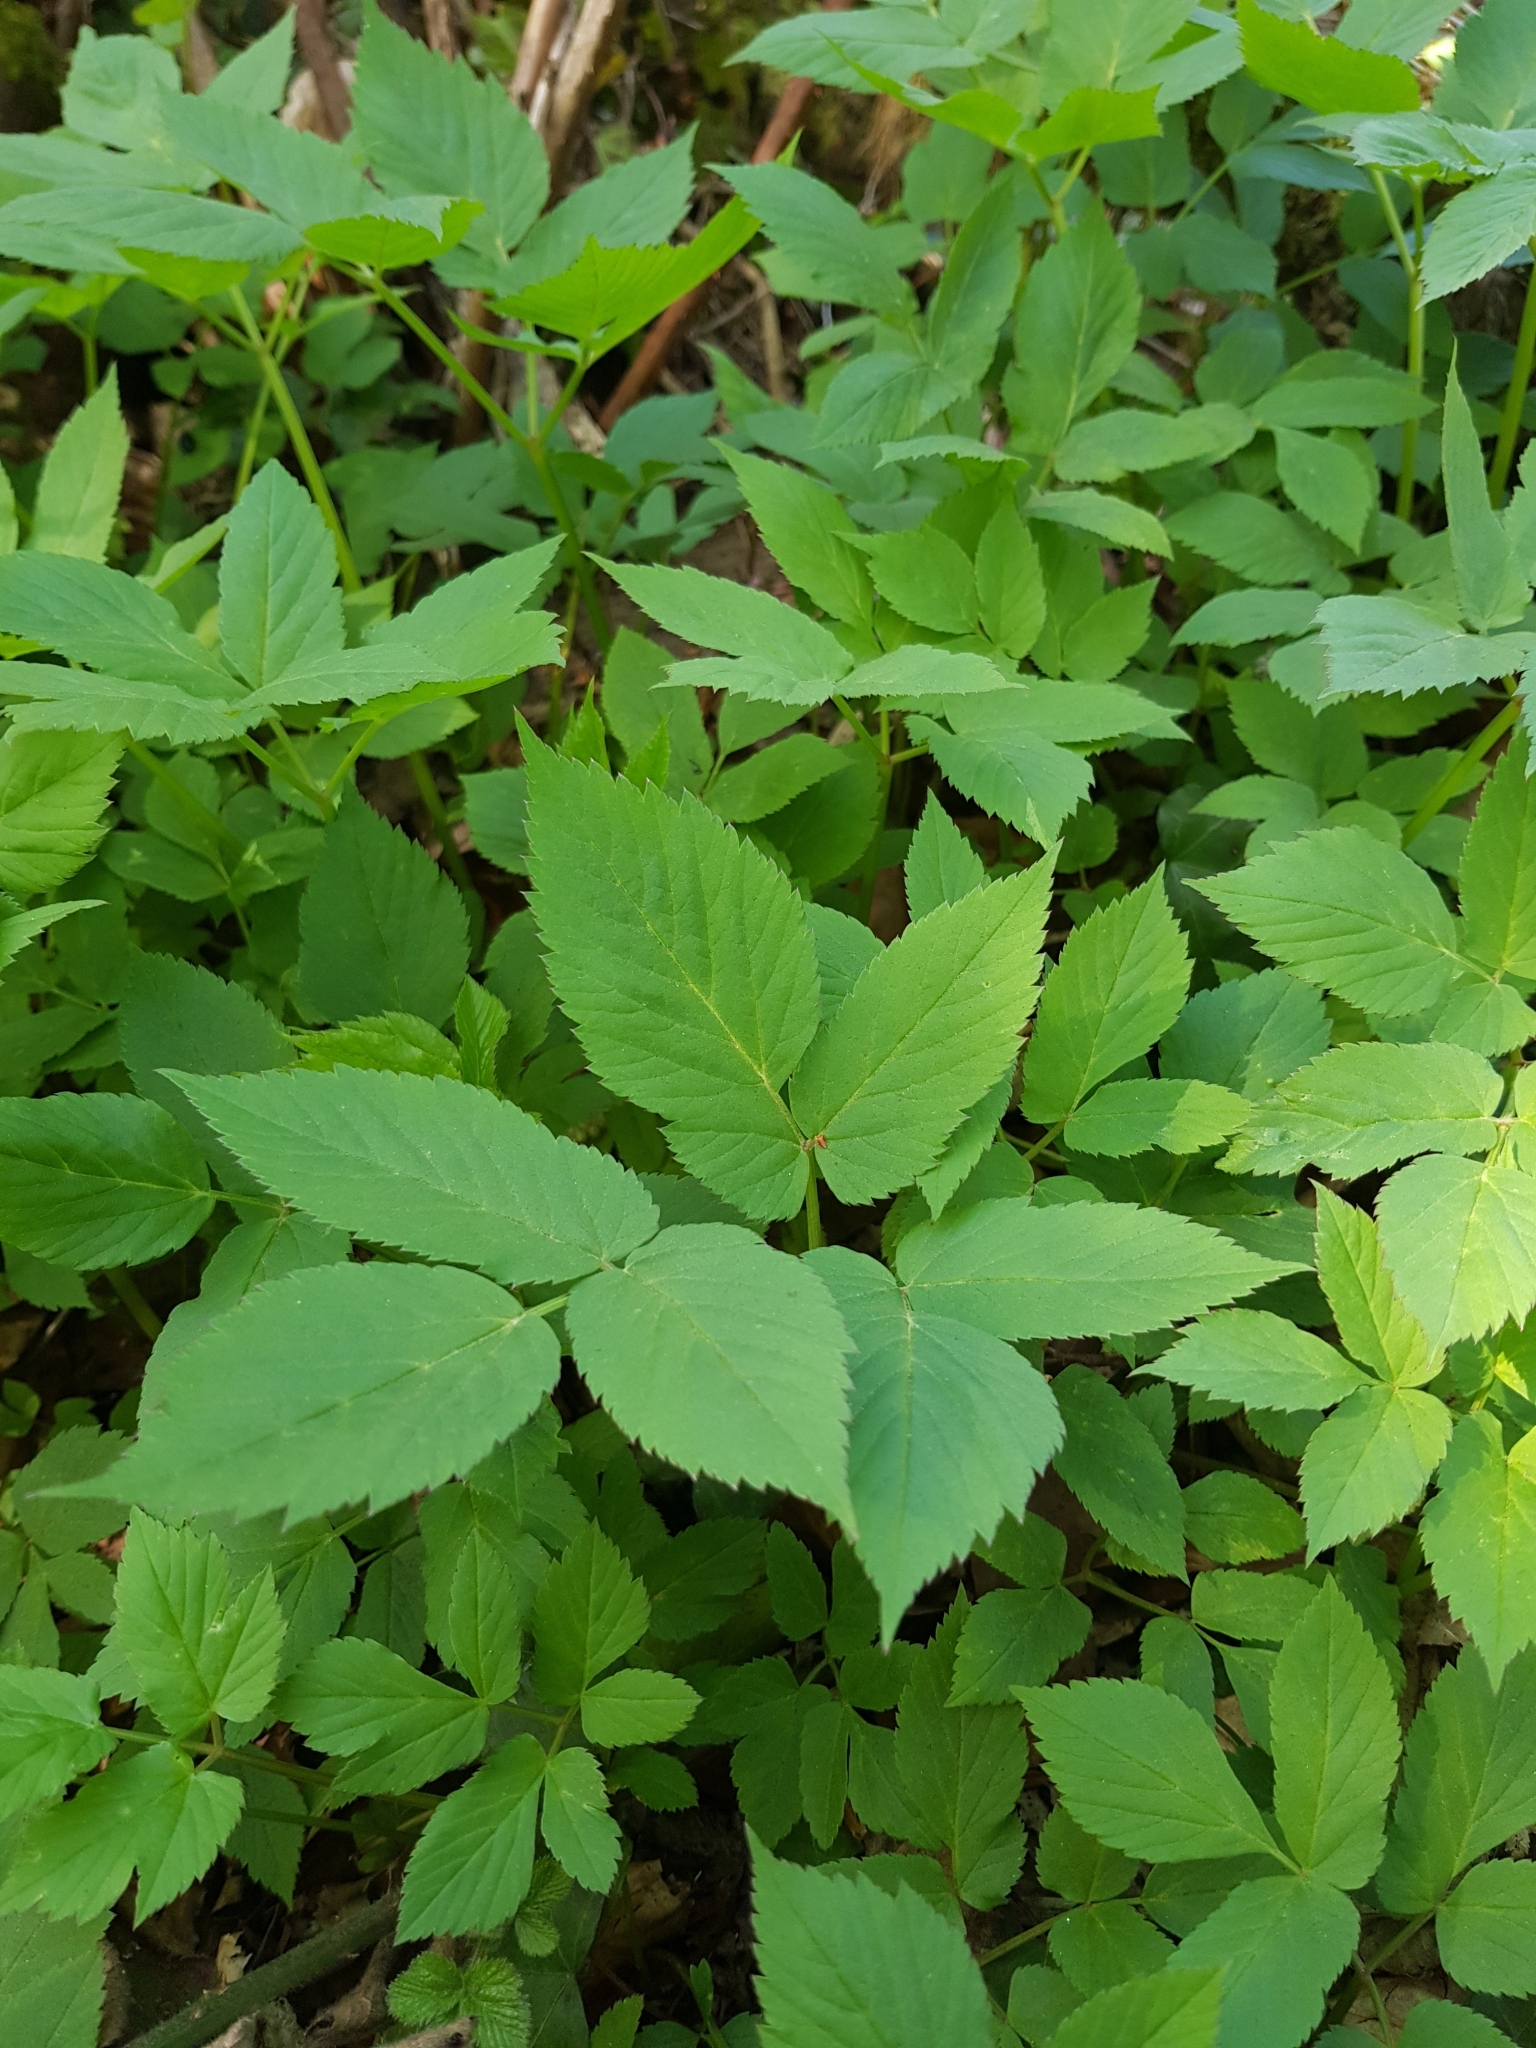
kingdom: Plantae
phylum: Tracheophyta
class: Magnoliopsida
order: Apiales
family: Apiaceae
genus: Aegopodium
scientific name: Aegopodium podagraria
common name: Ground-elder
